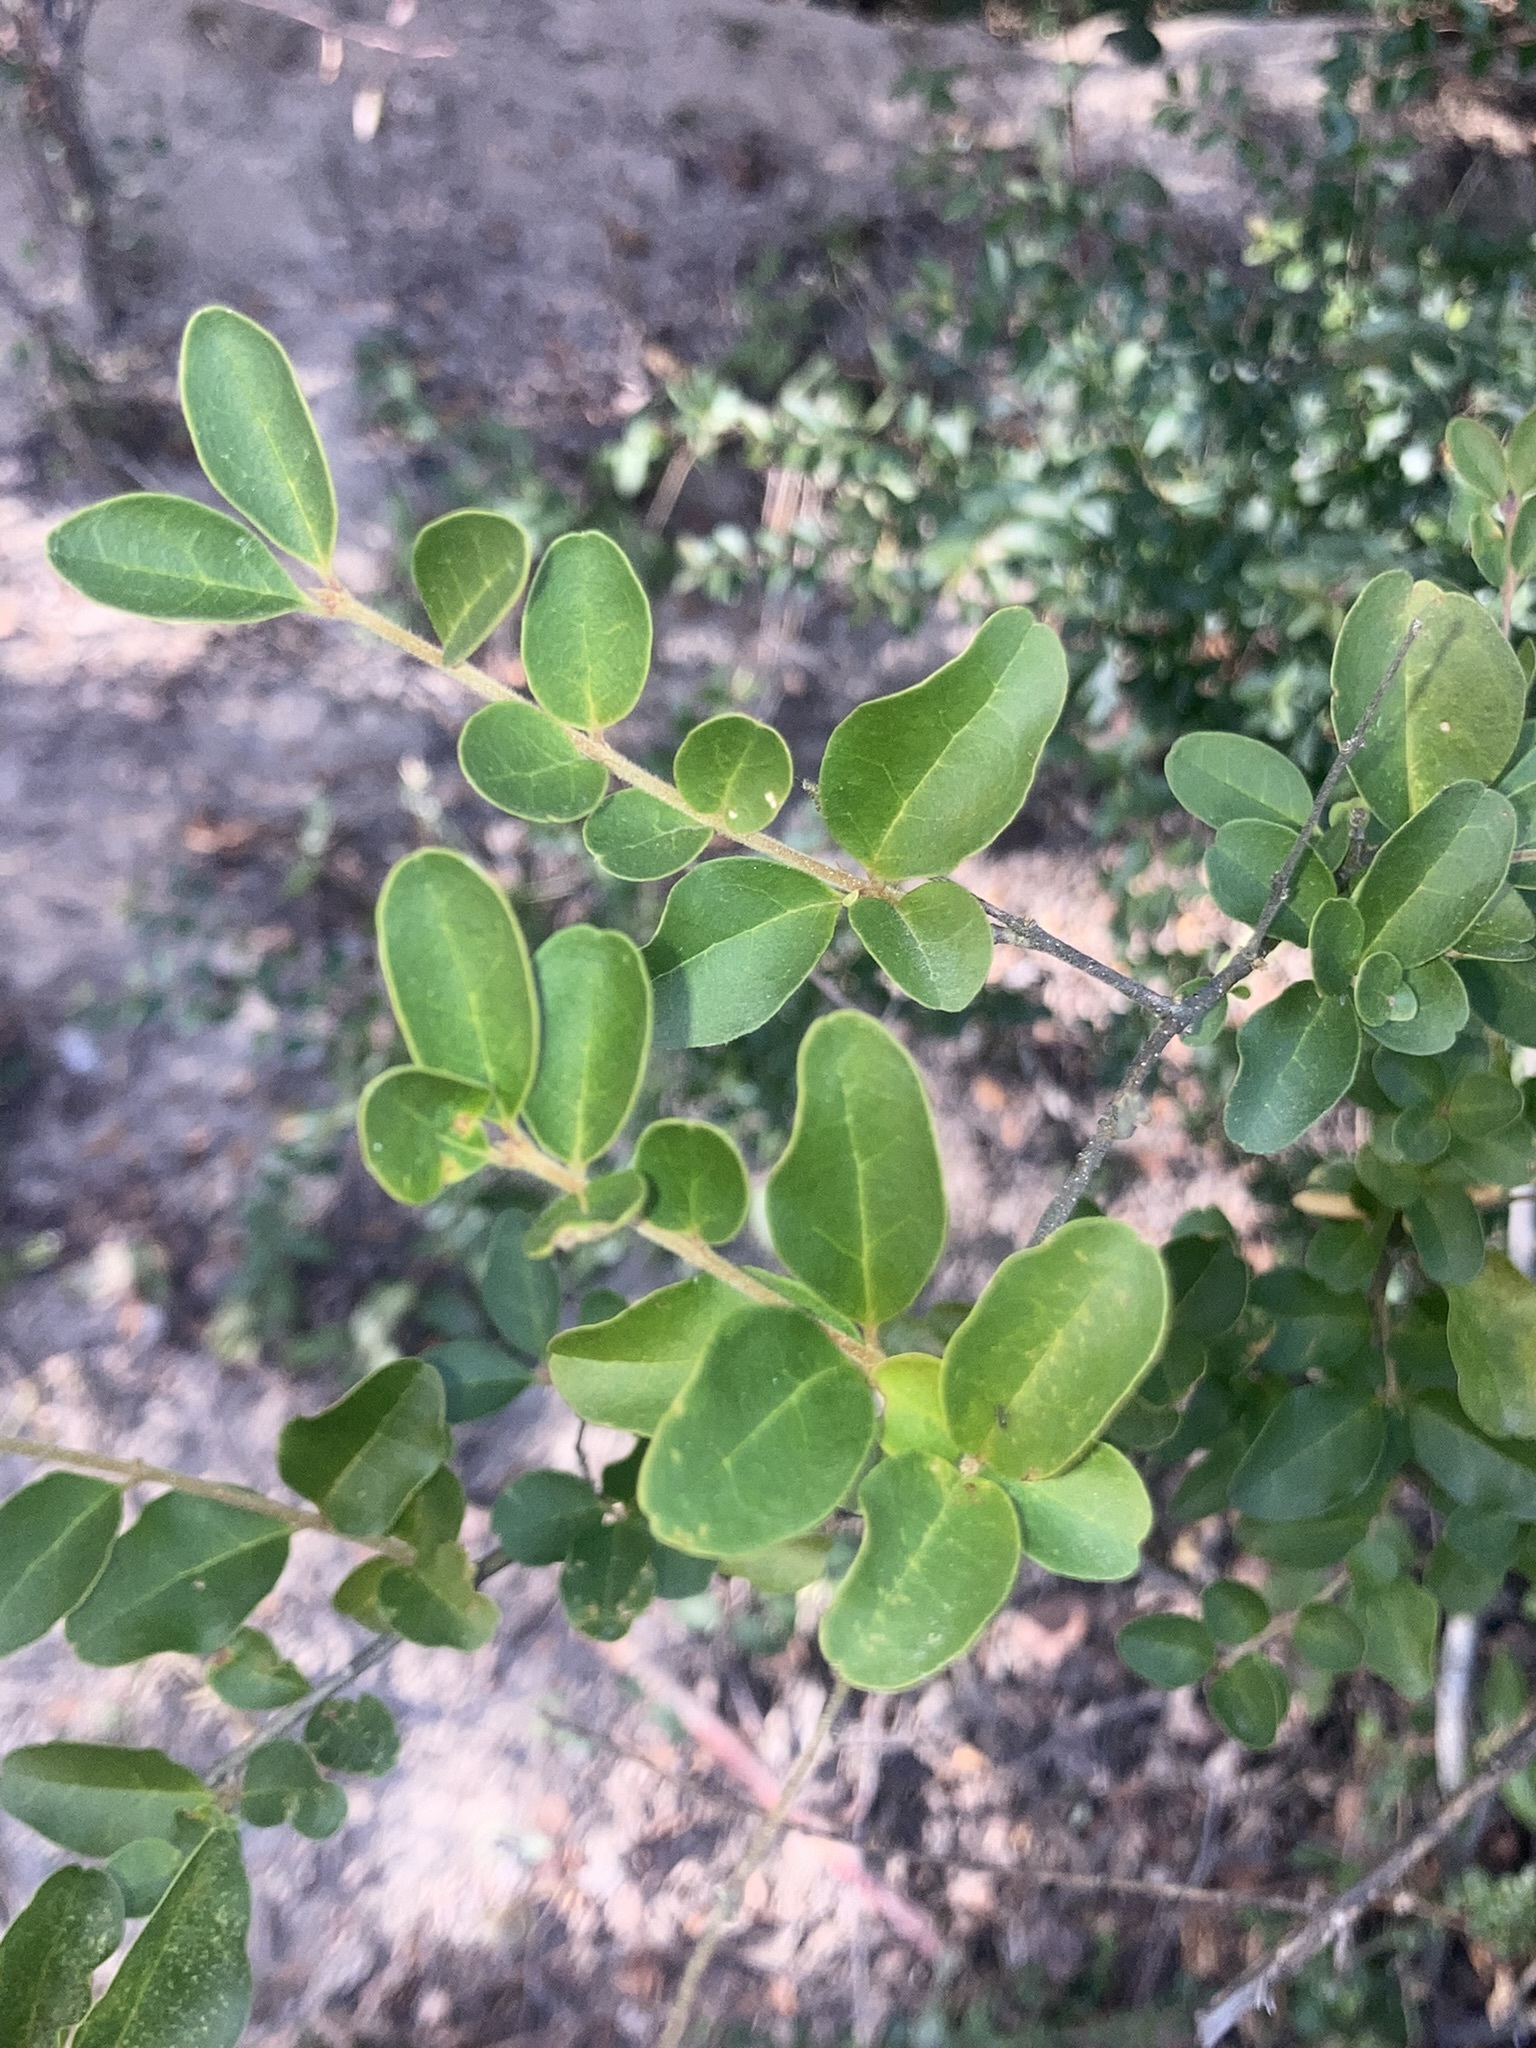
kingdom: Plantae
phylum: Tracheophyta
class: Magnoliopsida
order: Lamiales
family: Oleaceae
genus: Ligustrum
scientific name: Ligustrum sinense
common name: Chinese privet
